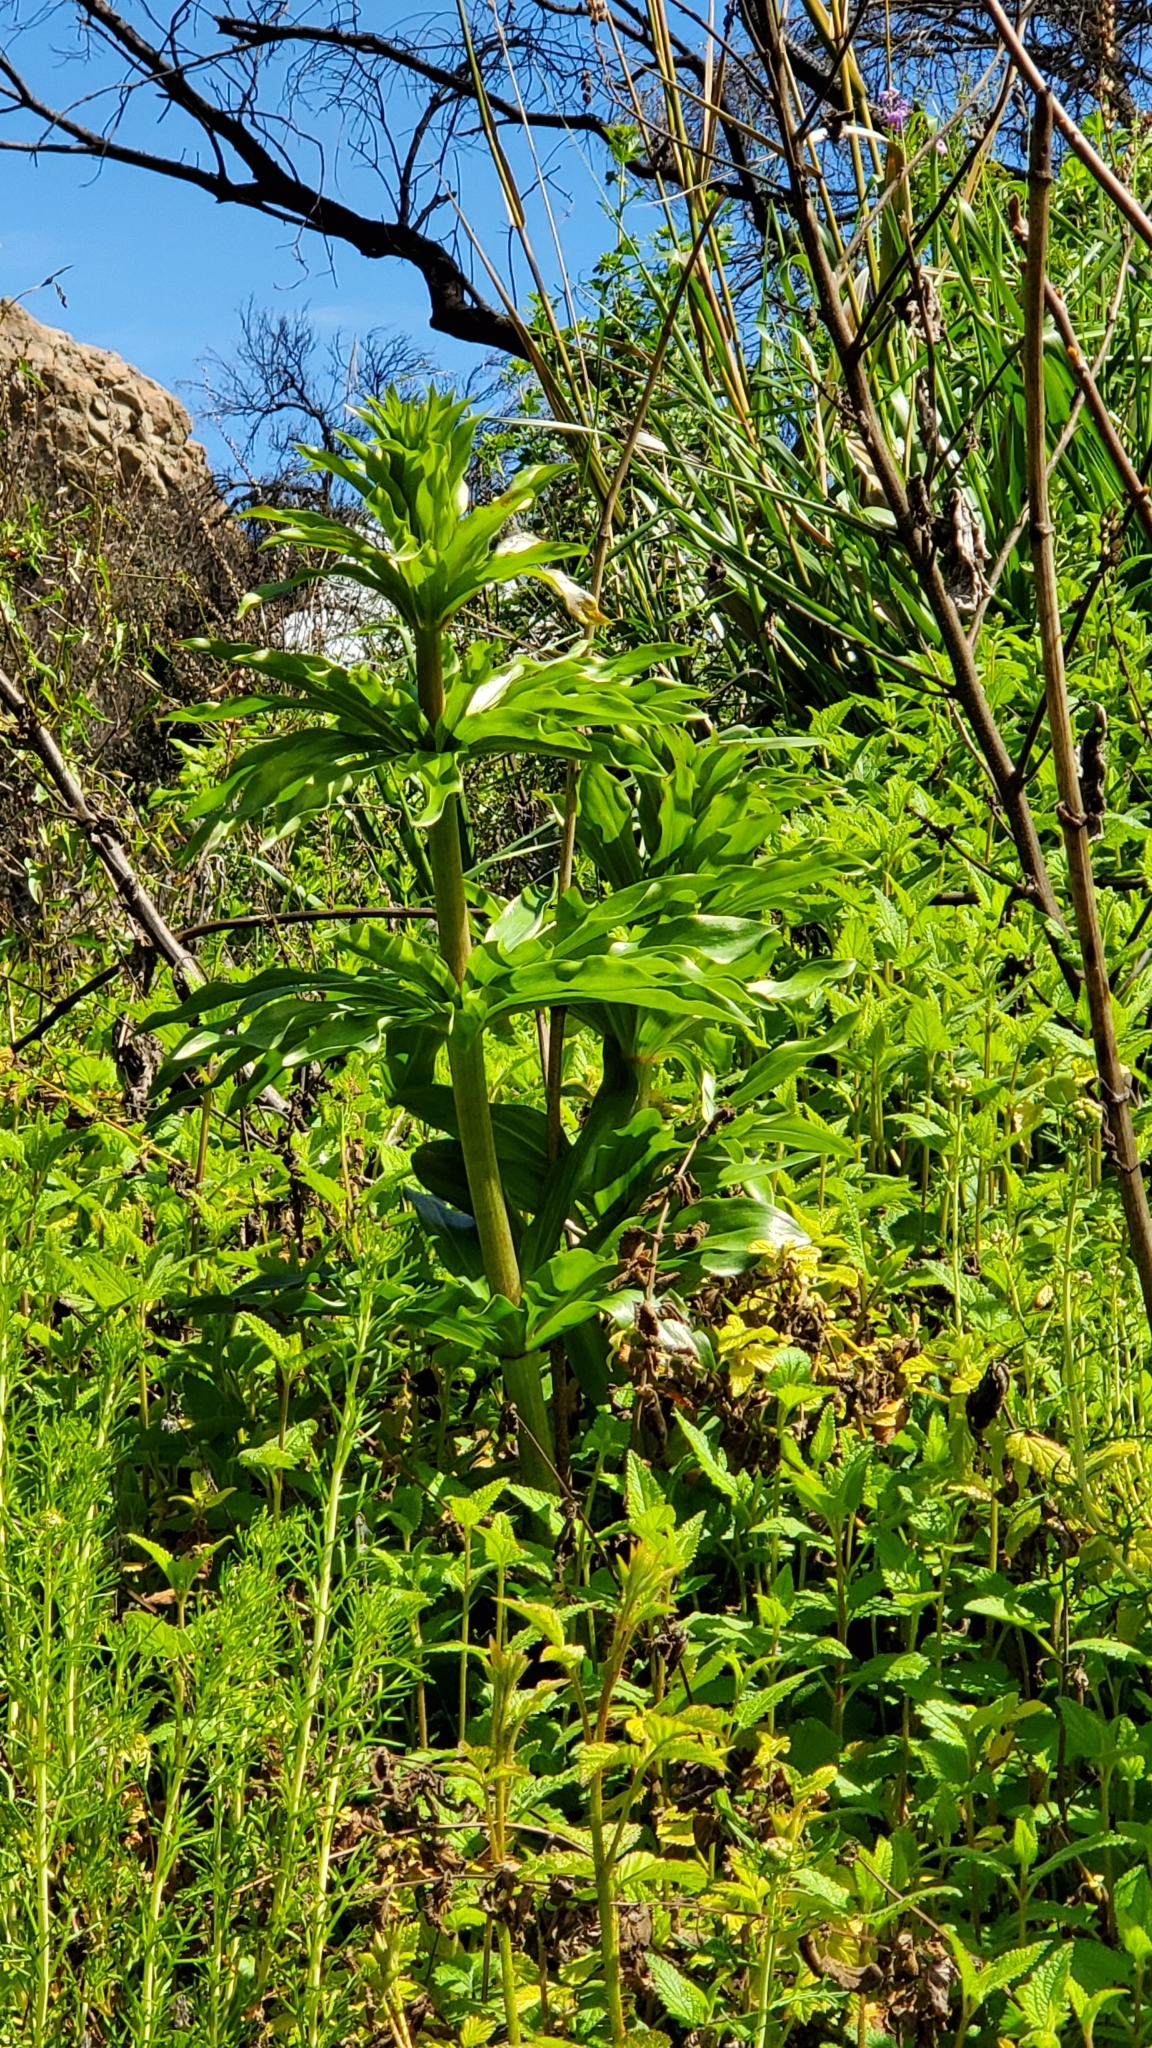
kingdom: Plantae
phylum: Tracheophyta
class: Liliopsida
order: Liliales
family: Liliaceae
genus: Lilium
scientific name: Lilium humboldtii
